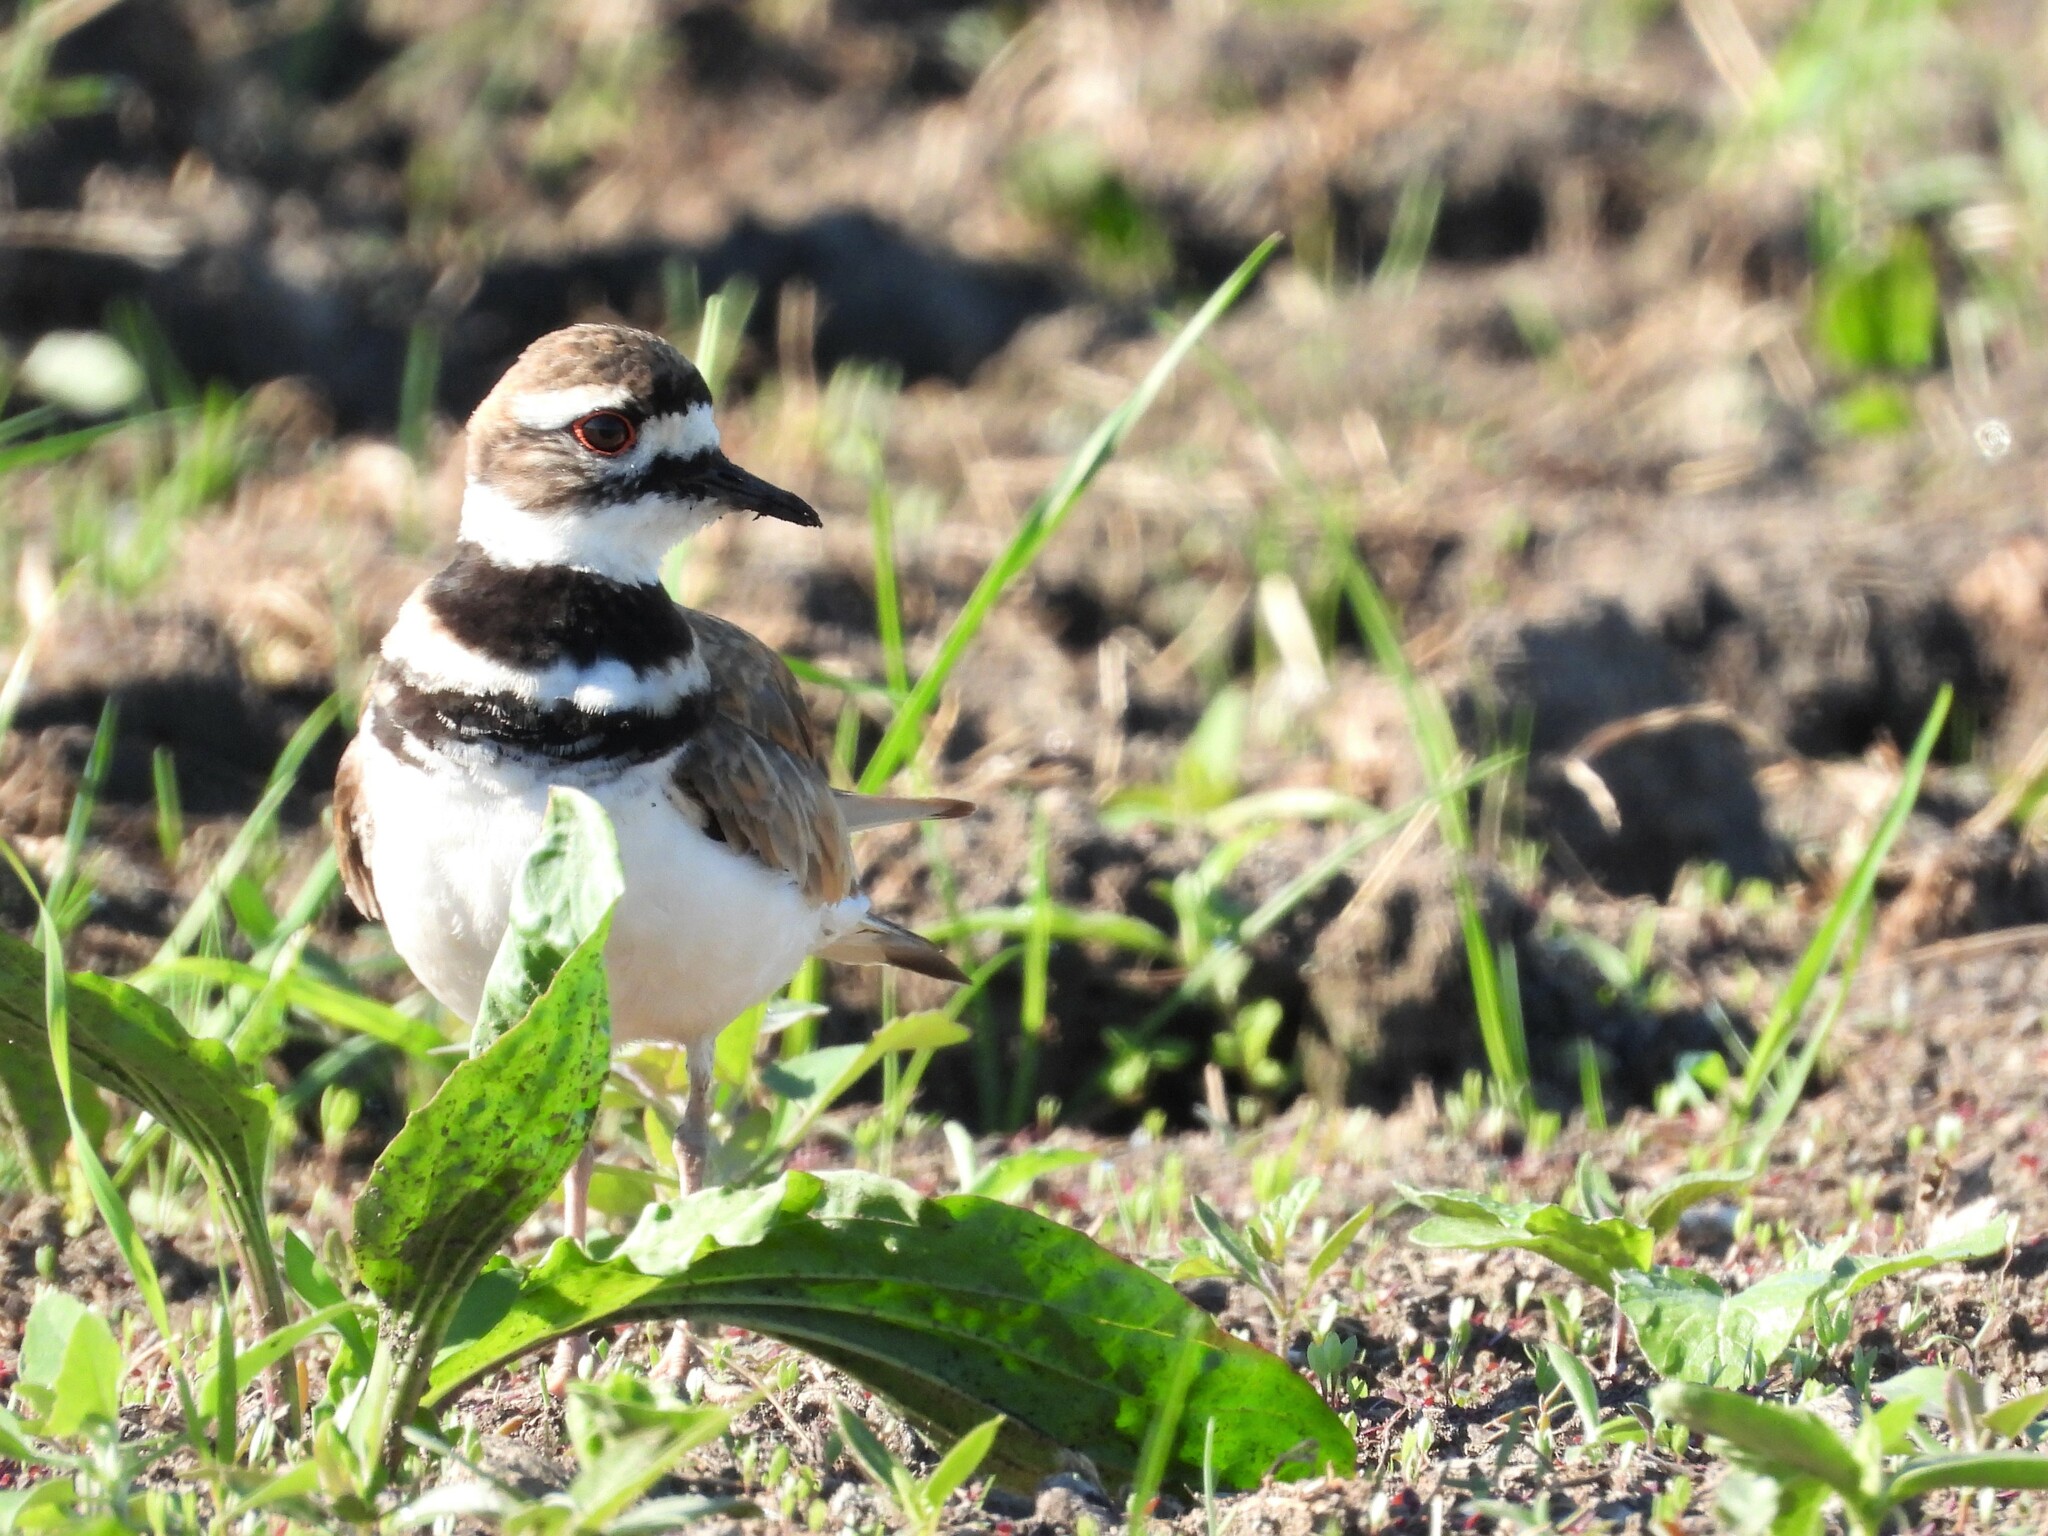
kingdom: Animalia
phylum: Chordata
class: Aves
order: Charadriiformes
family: Charadriidae
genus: Charadrius
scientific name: Charadrius vociferus
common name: Killdeer
